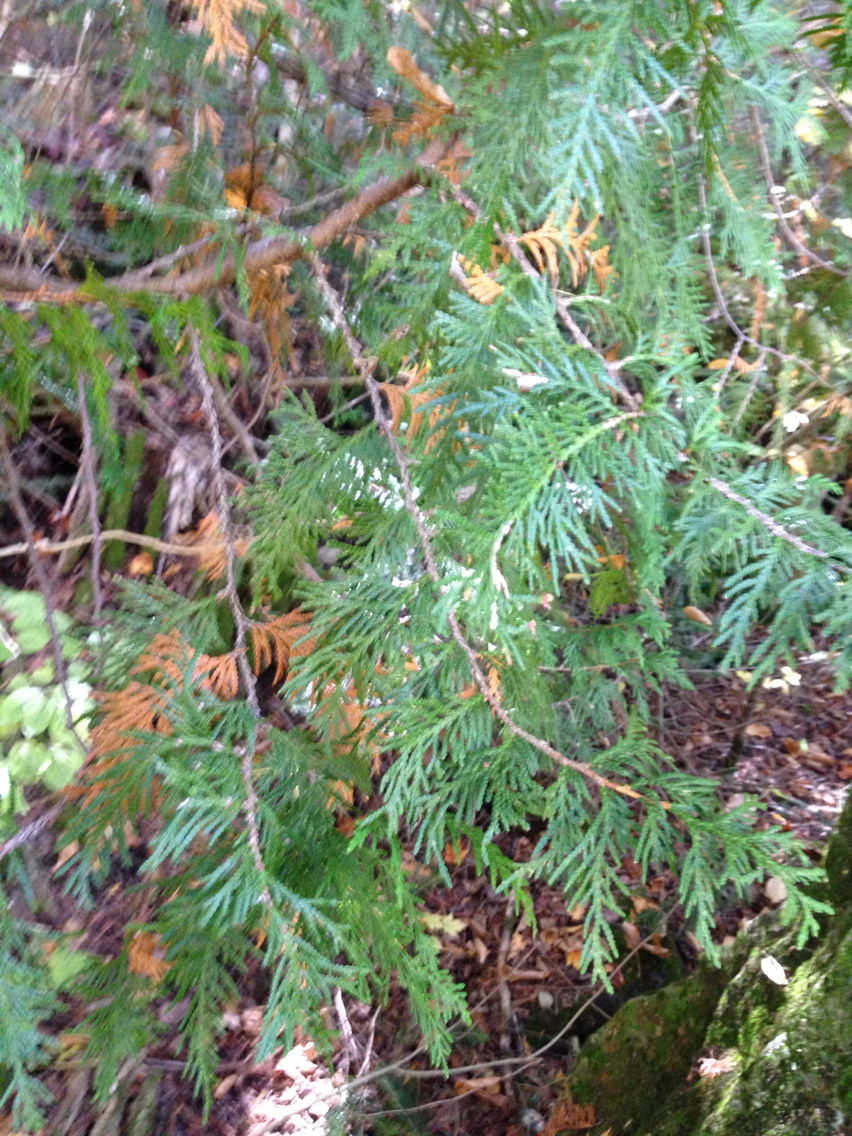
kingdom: Plantae
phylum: Tracheophyta
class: Pinopsida
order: Pinales
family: Cupressaceae
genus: Thuja
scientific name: Thuja occidentalis
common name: Northern white-cedar
